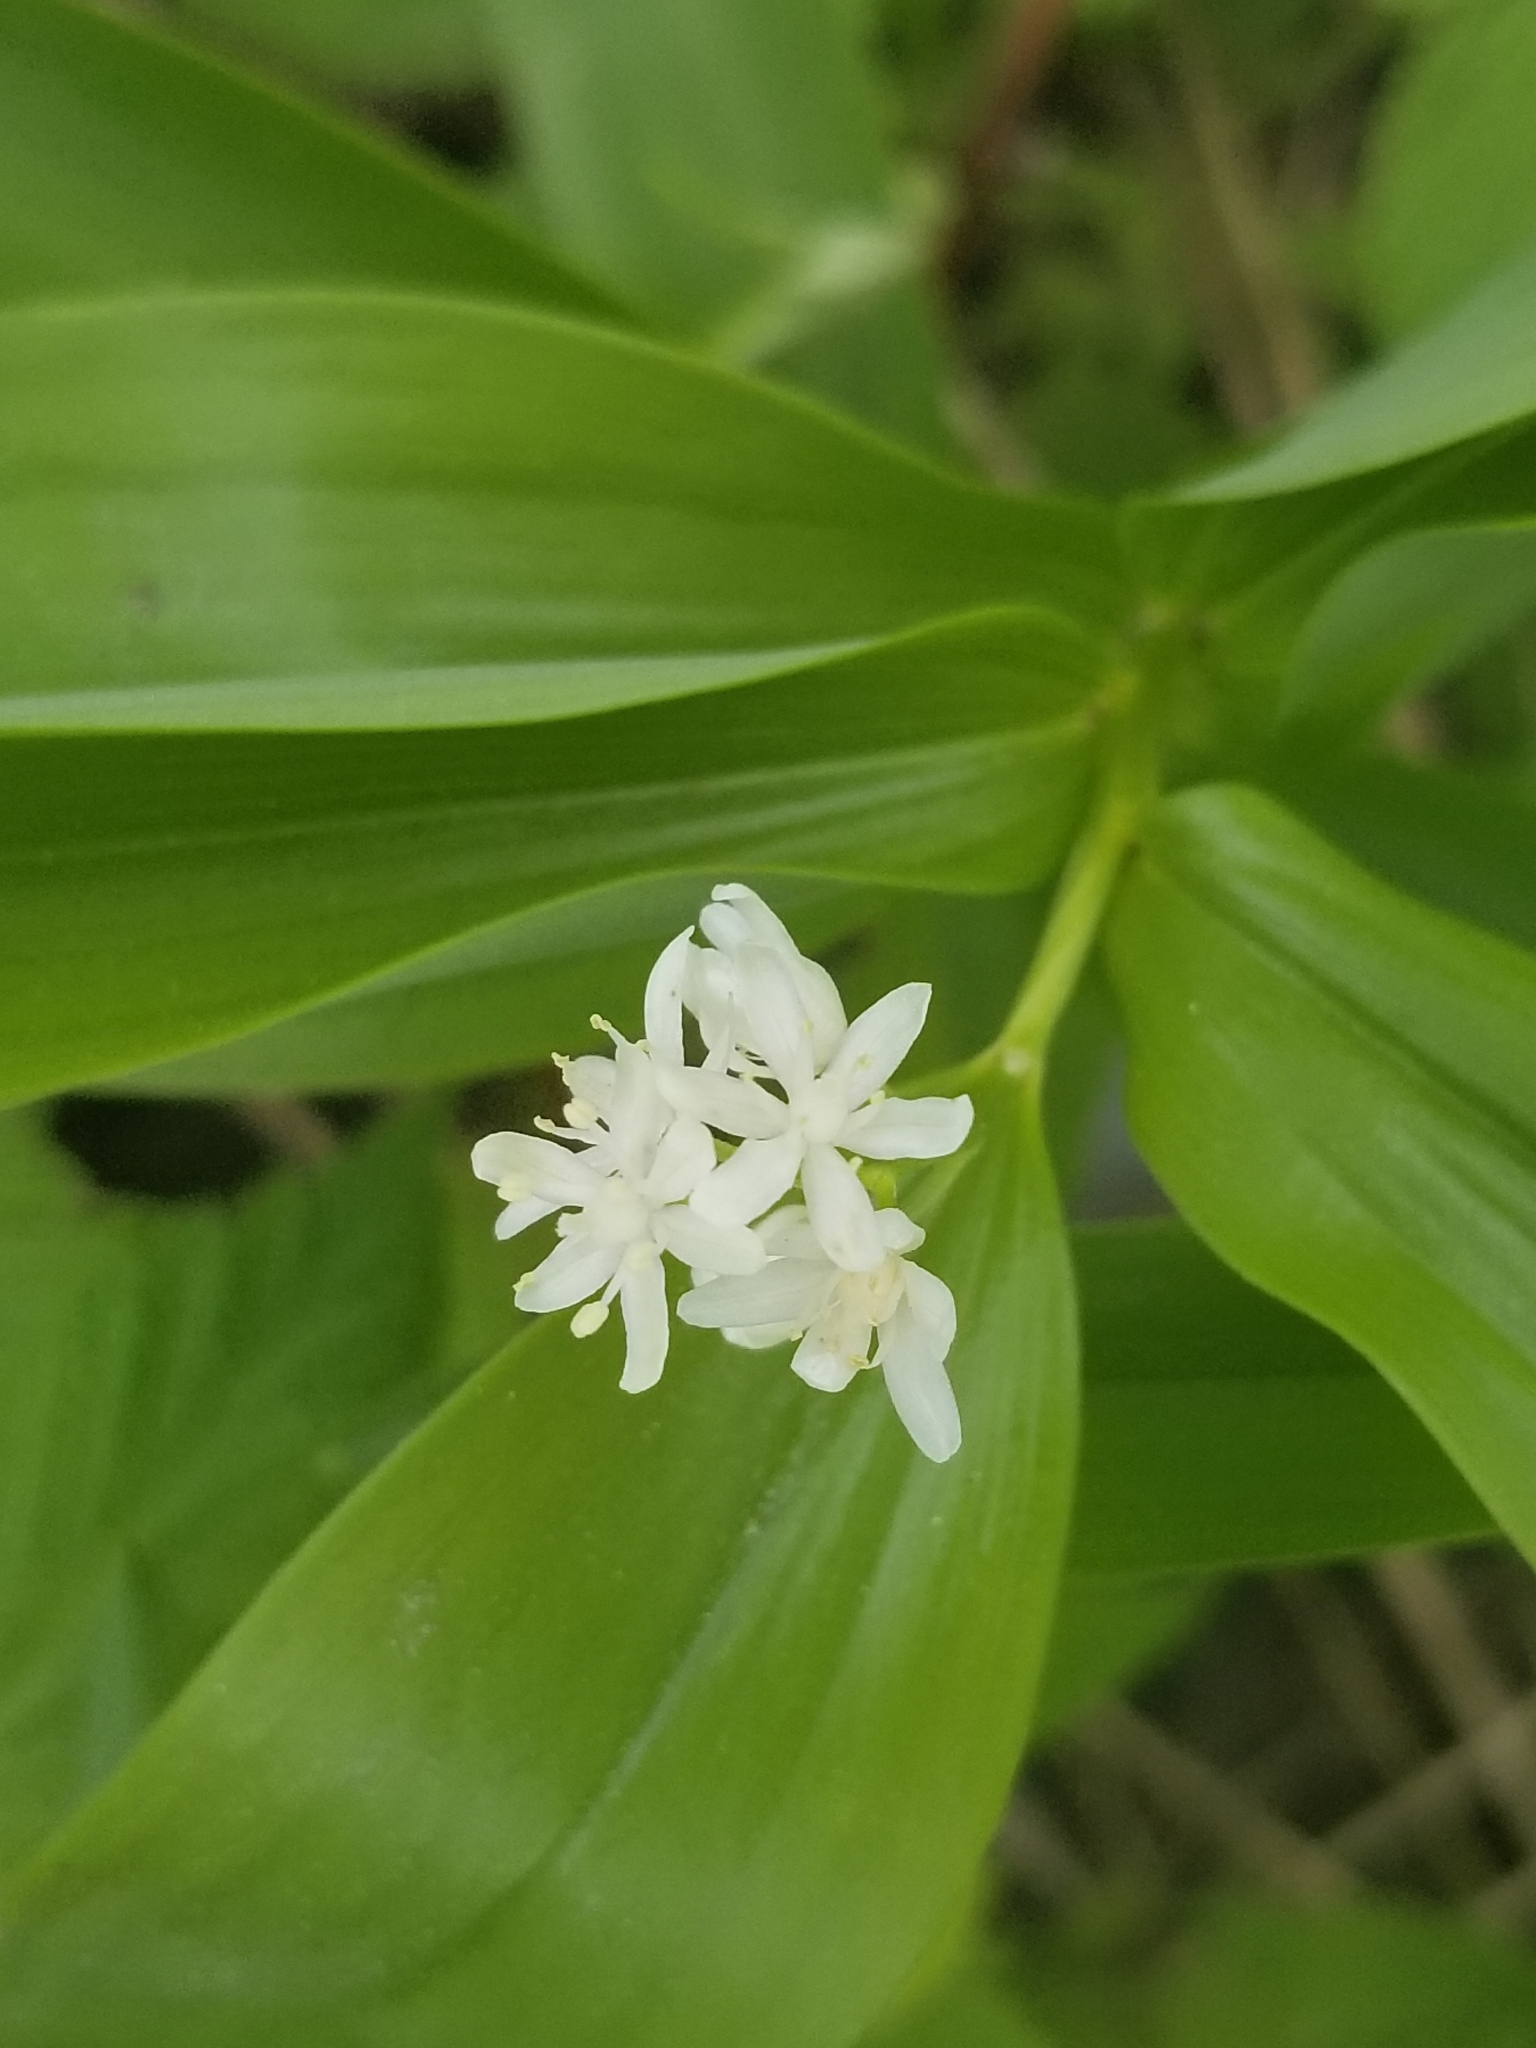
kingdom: Plantae
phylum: Tracheophyta
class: Liliopsida
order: Asparagales
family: Asparagaceae
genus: Maianthemum
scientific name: Maianthemum stellatum
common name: Little false solomon's seal
